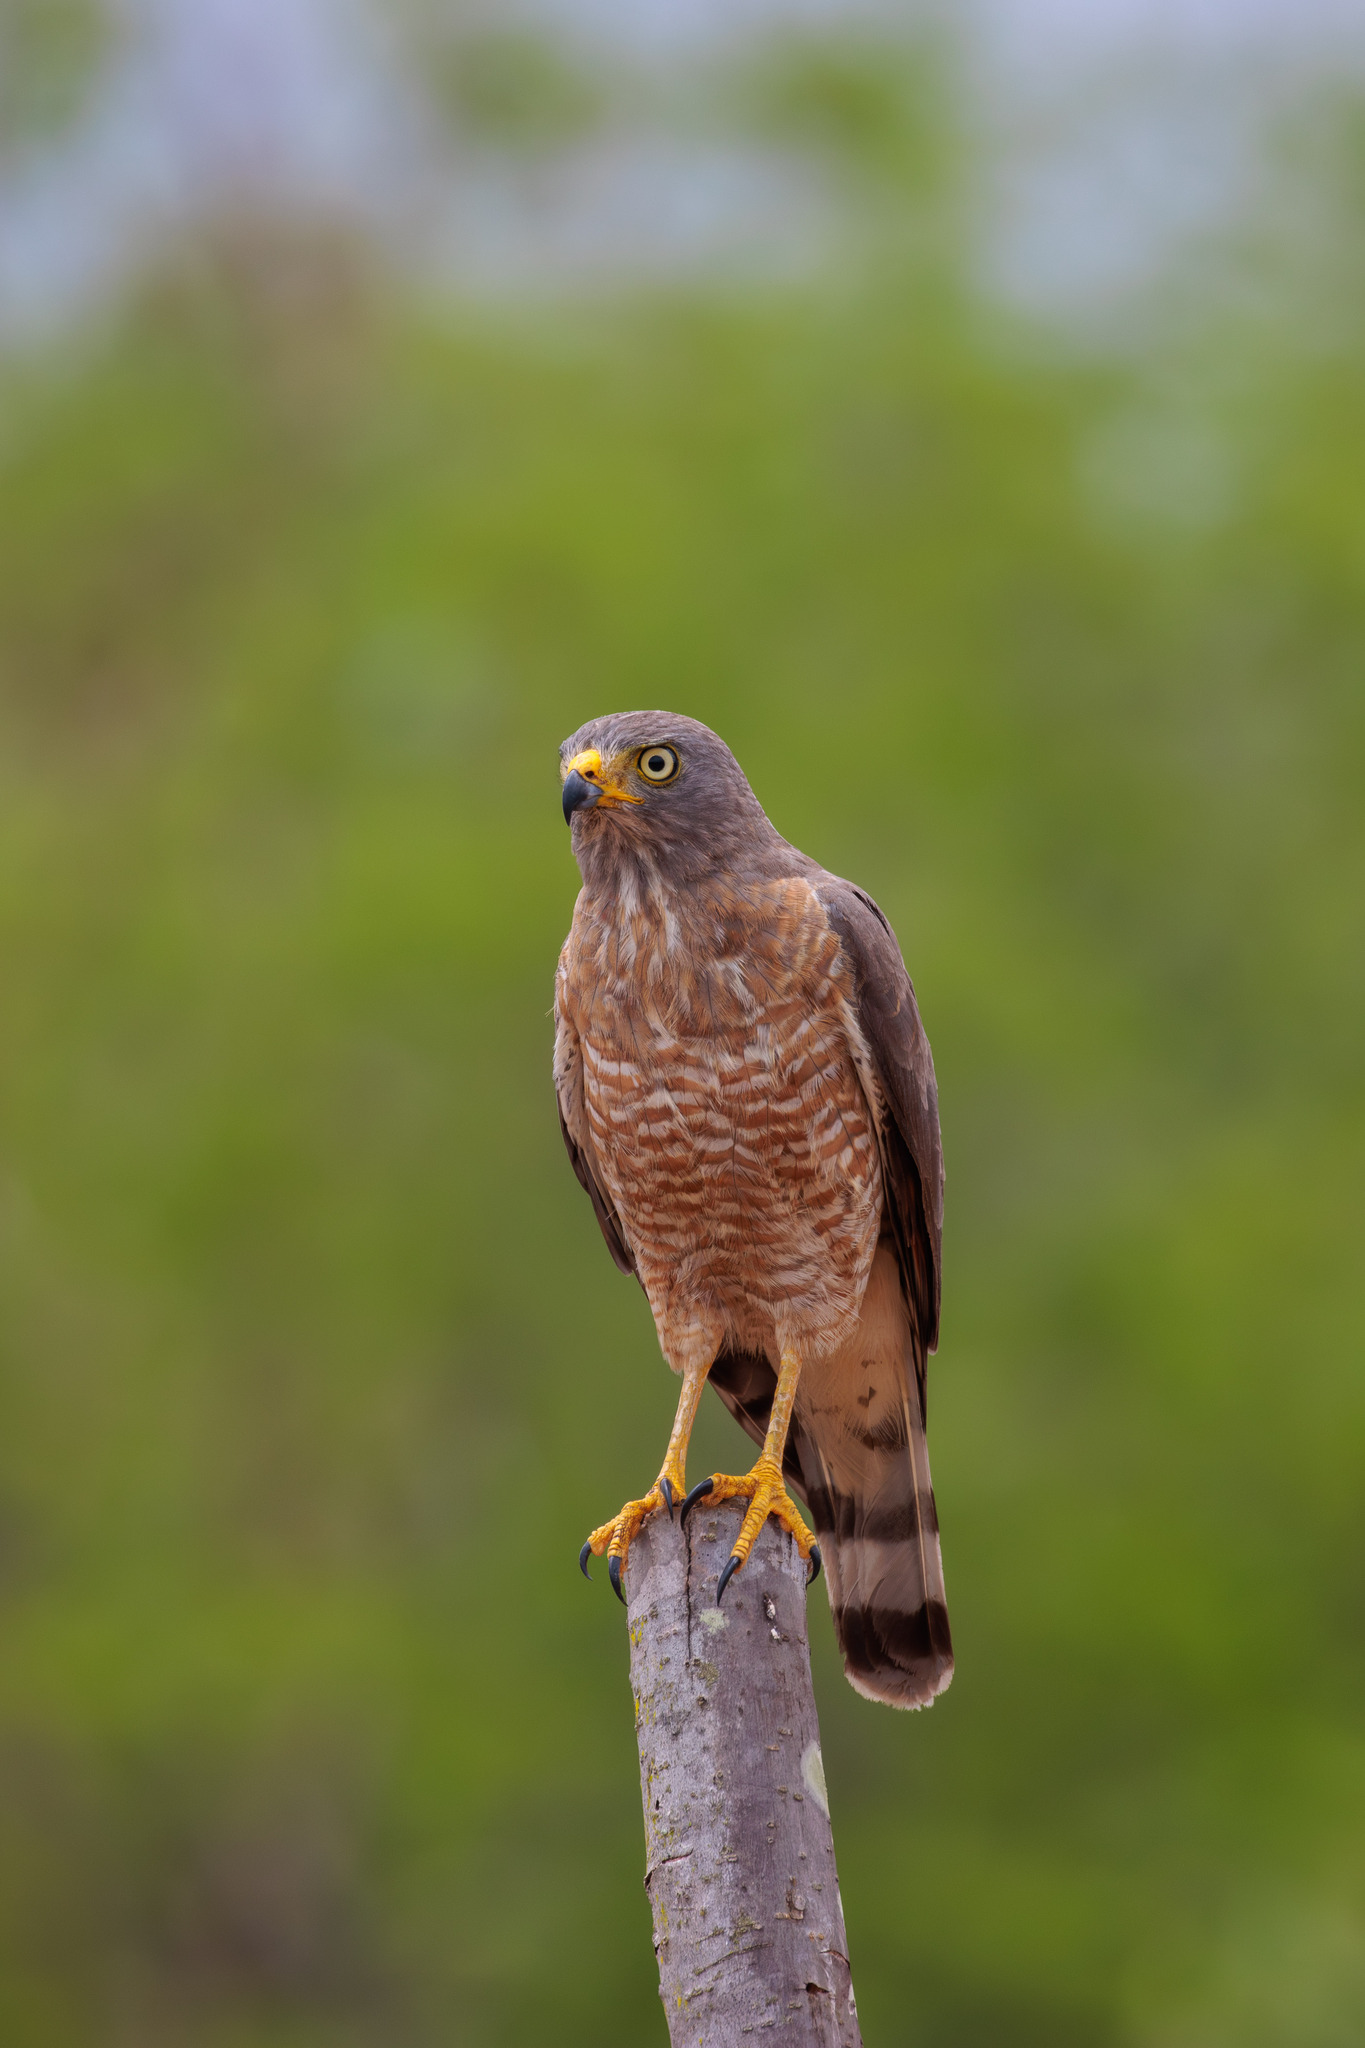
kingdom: Animalia
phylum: Chordata
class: Aves
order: Accipitriformes
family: Accipitridae
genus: Rupornis
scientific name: Rupornis magnirostris
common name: Roadside hawk
